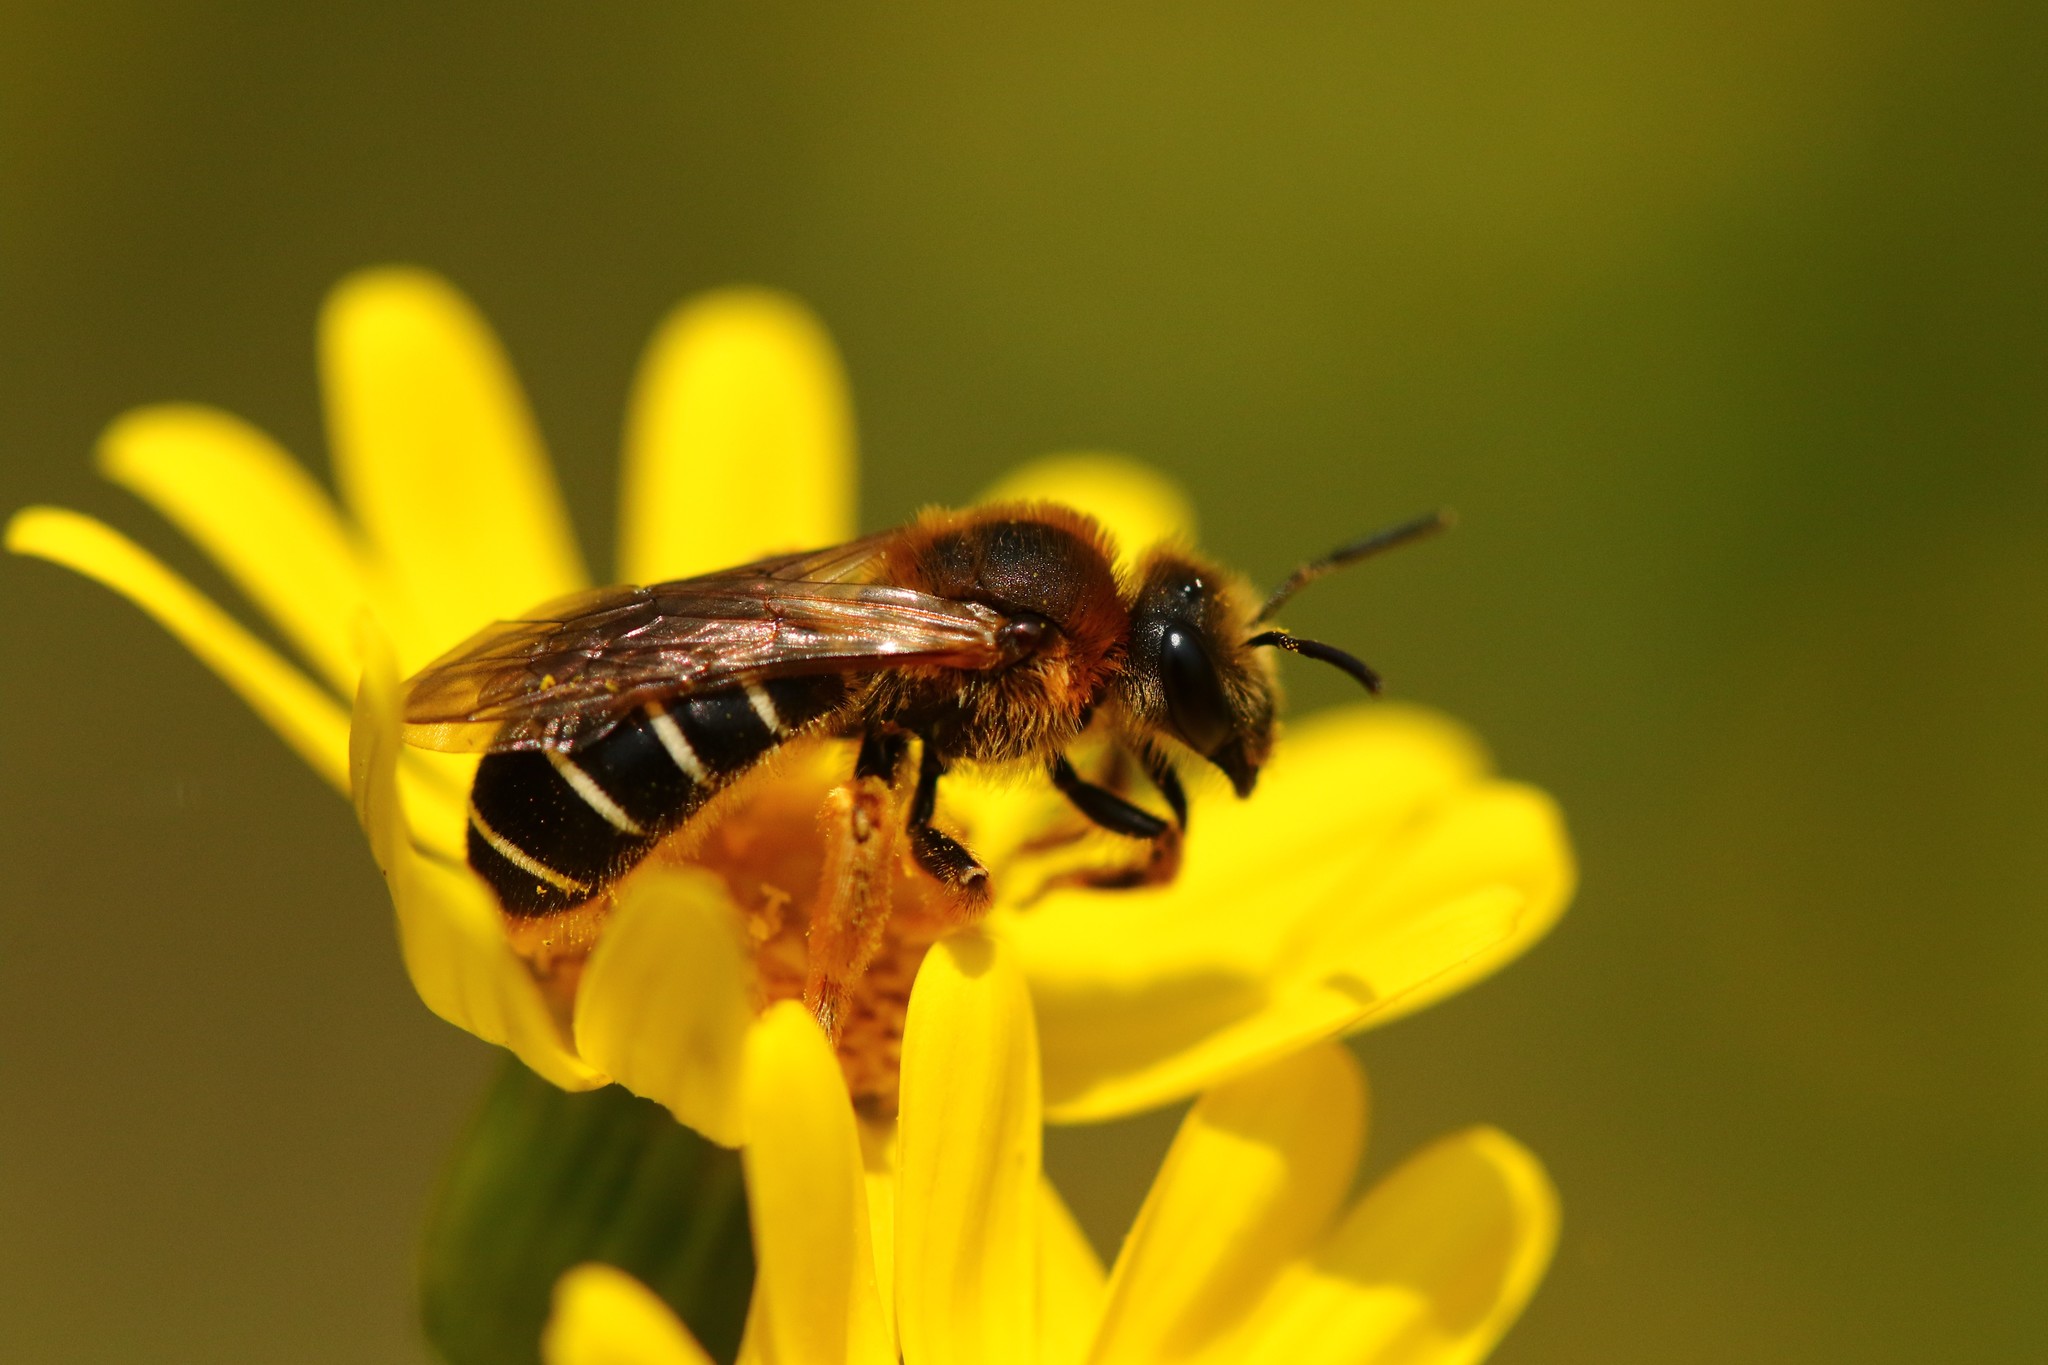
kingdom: Animalia
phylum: Arthropoda
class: Insecta
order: Hymenoptera
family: Halictidae
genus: Halictus
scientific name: Halictus rubicundus
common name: Orange-legged furrow bee
